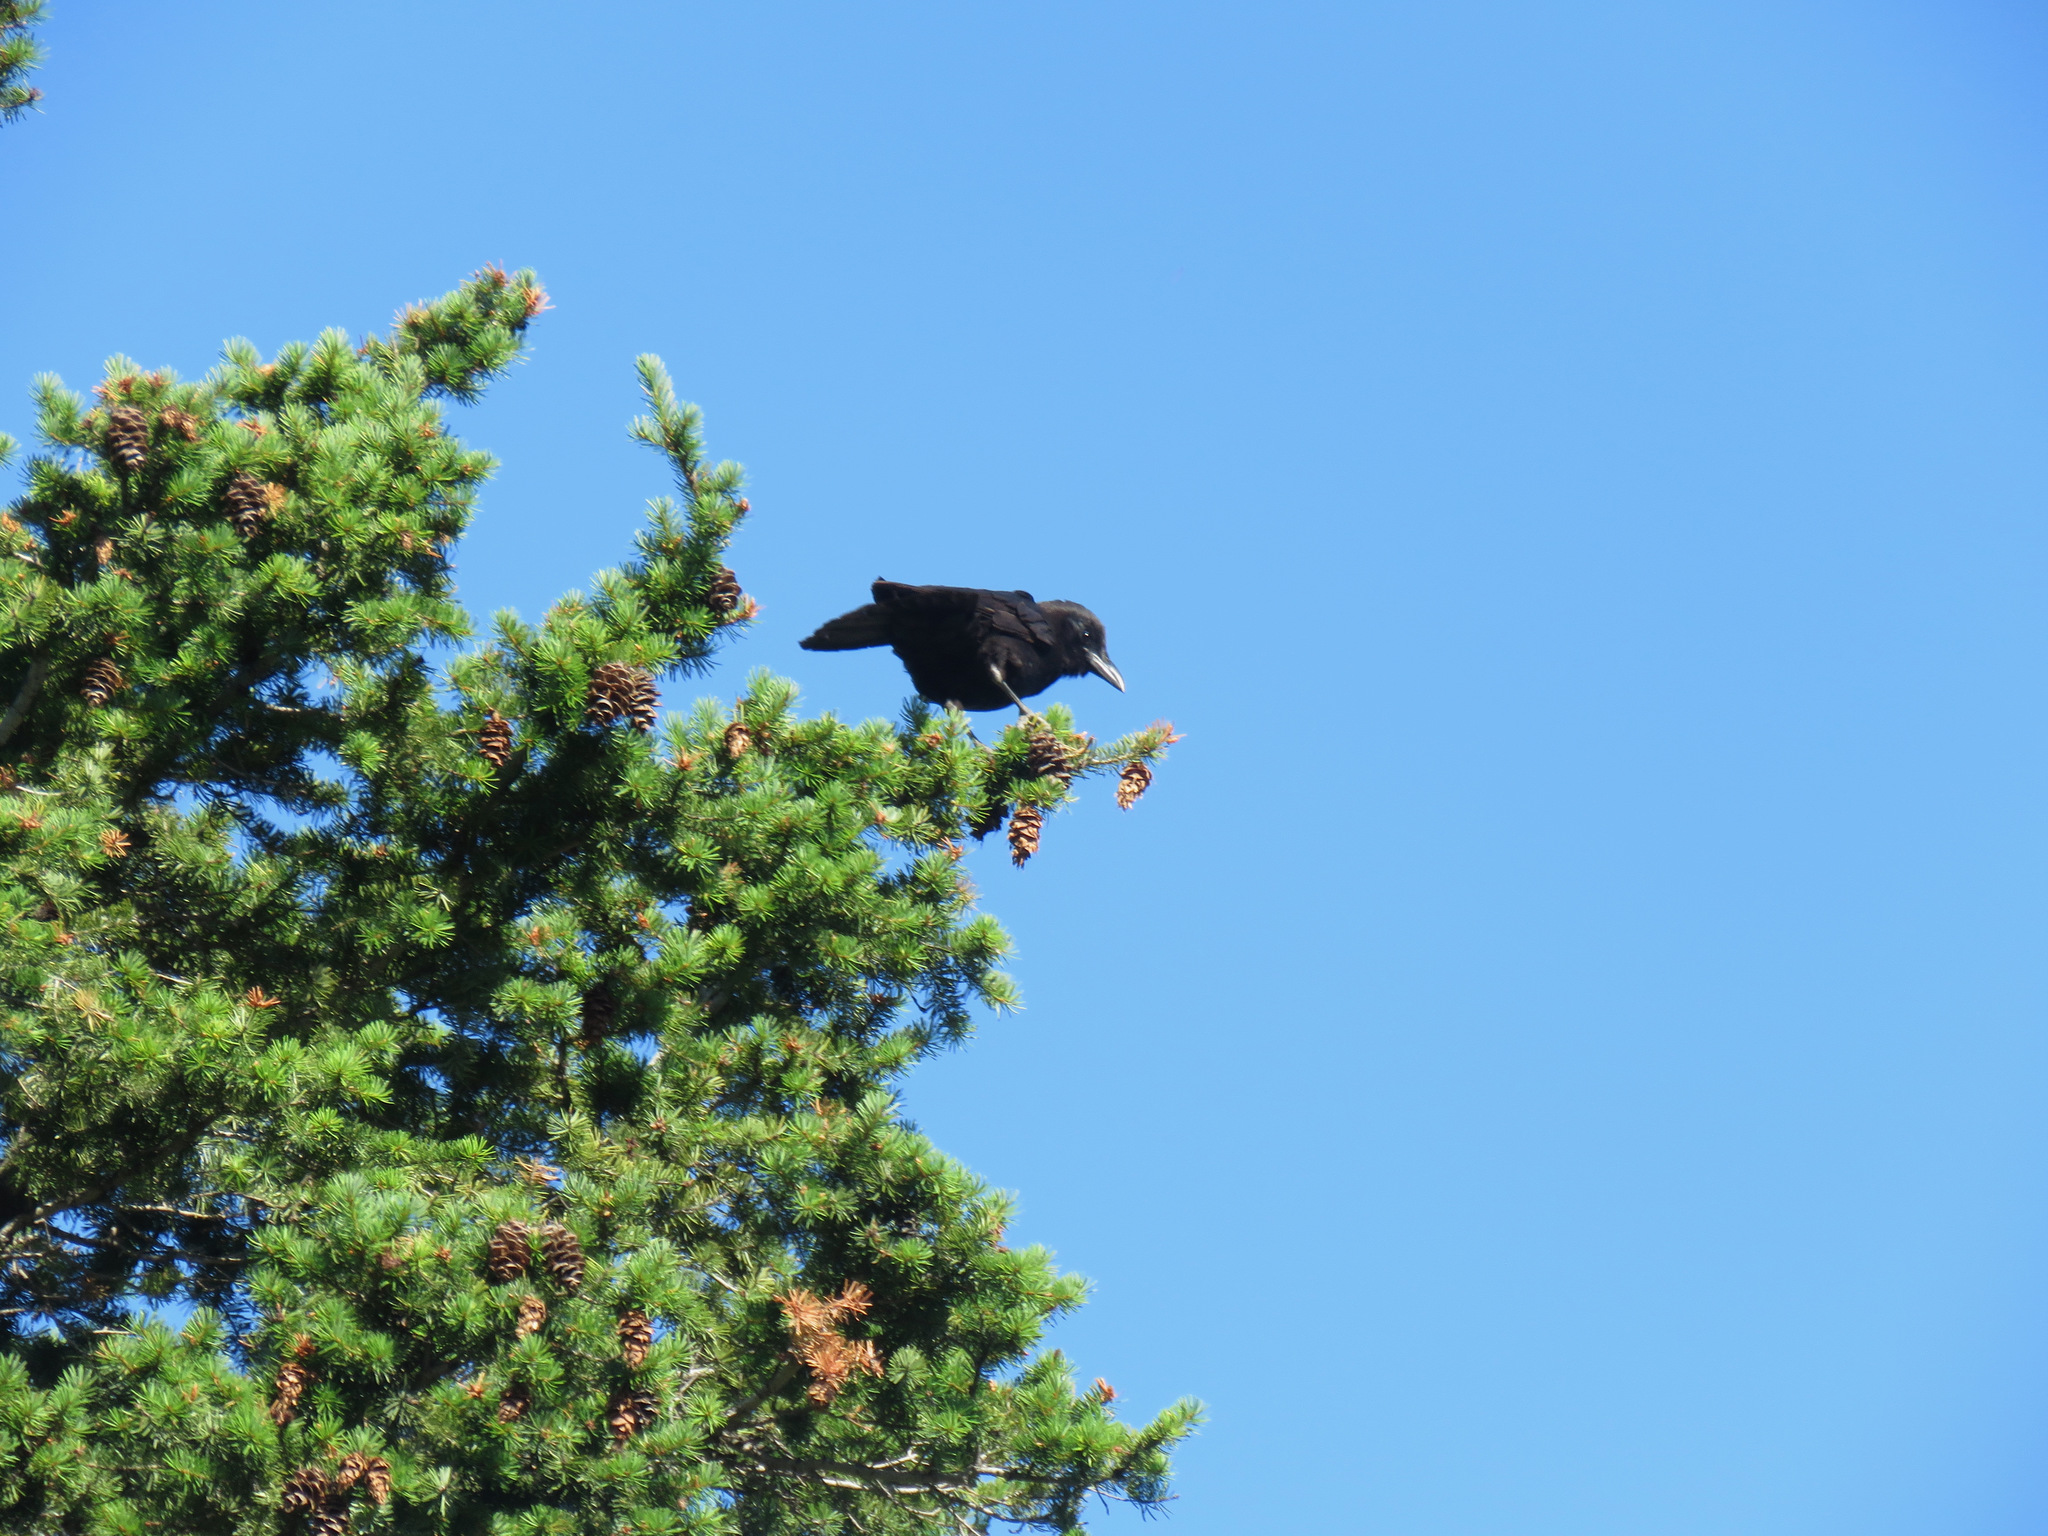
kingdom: Animalia
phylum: Chordata
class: Aves
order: Passeriformes
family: Corvidae
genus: Corvus
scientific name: Corvus brachyrhynchos
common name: American crow
